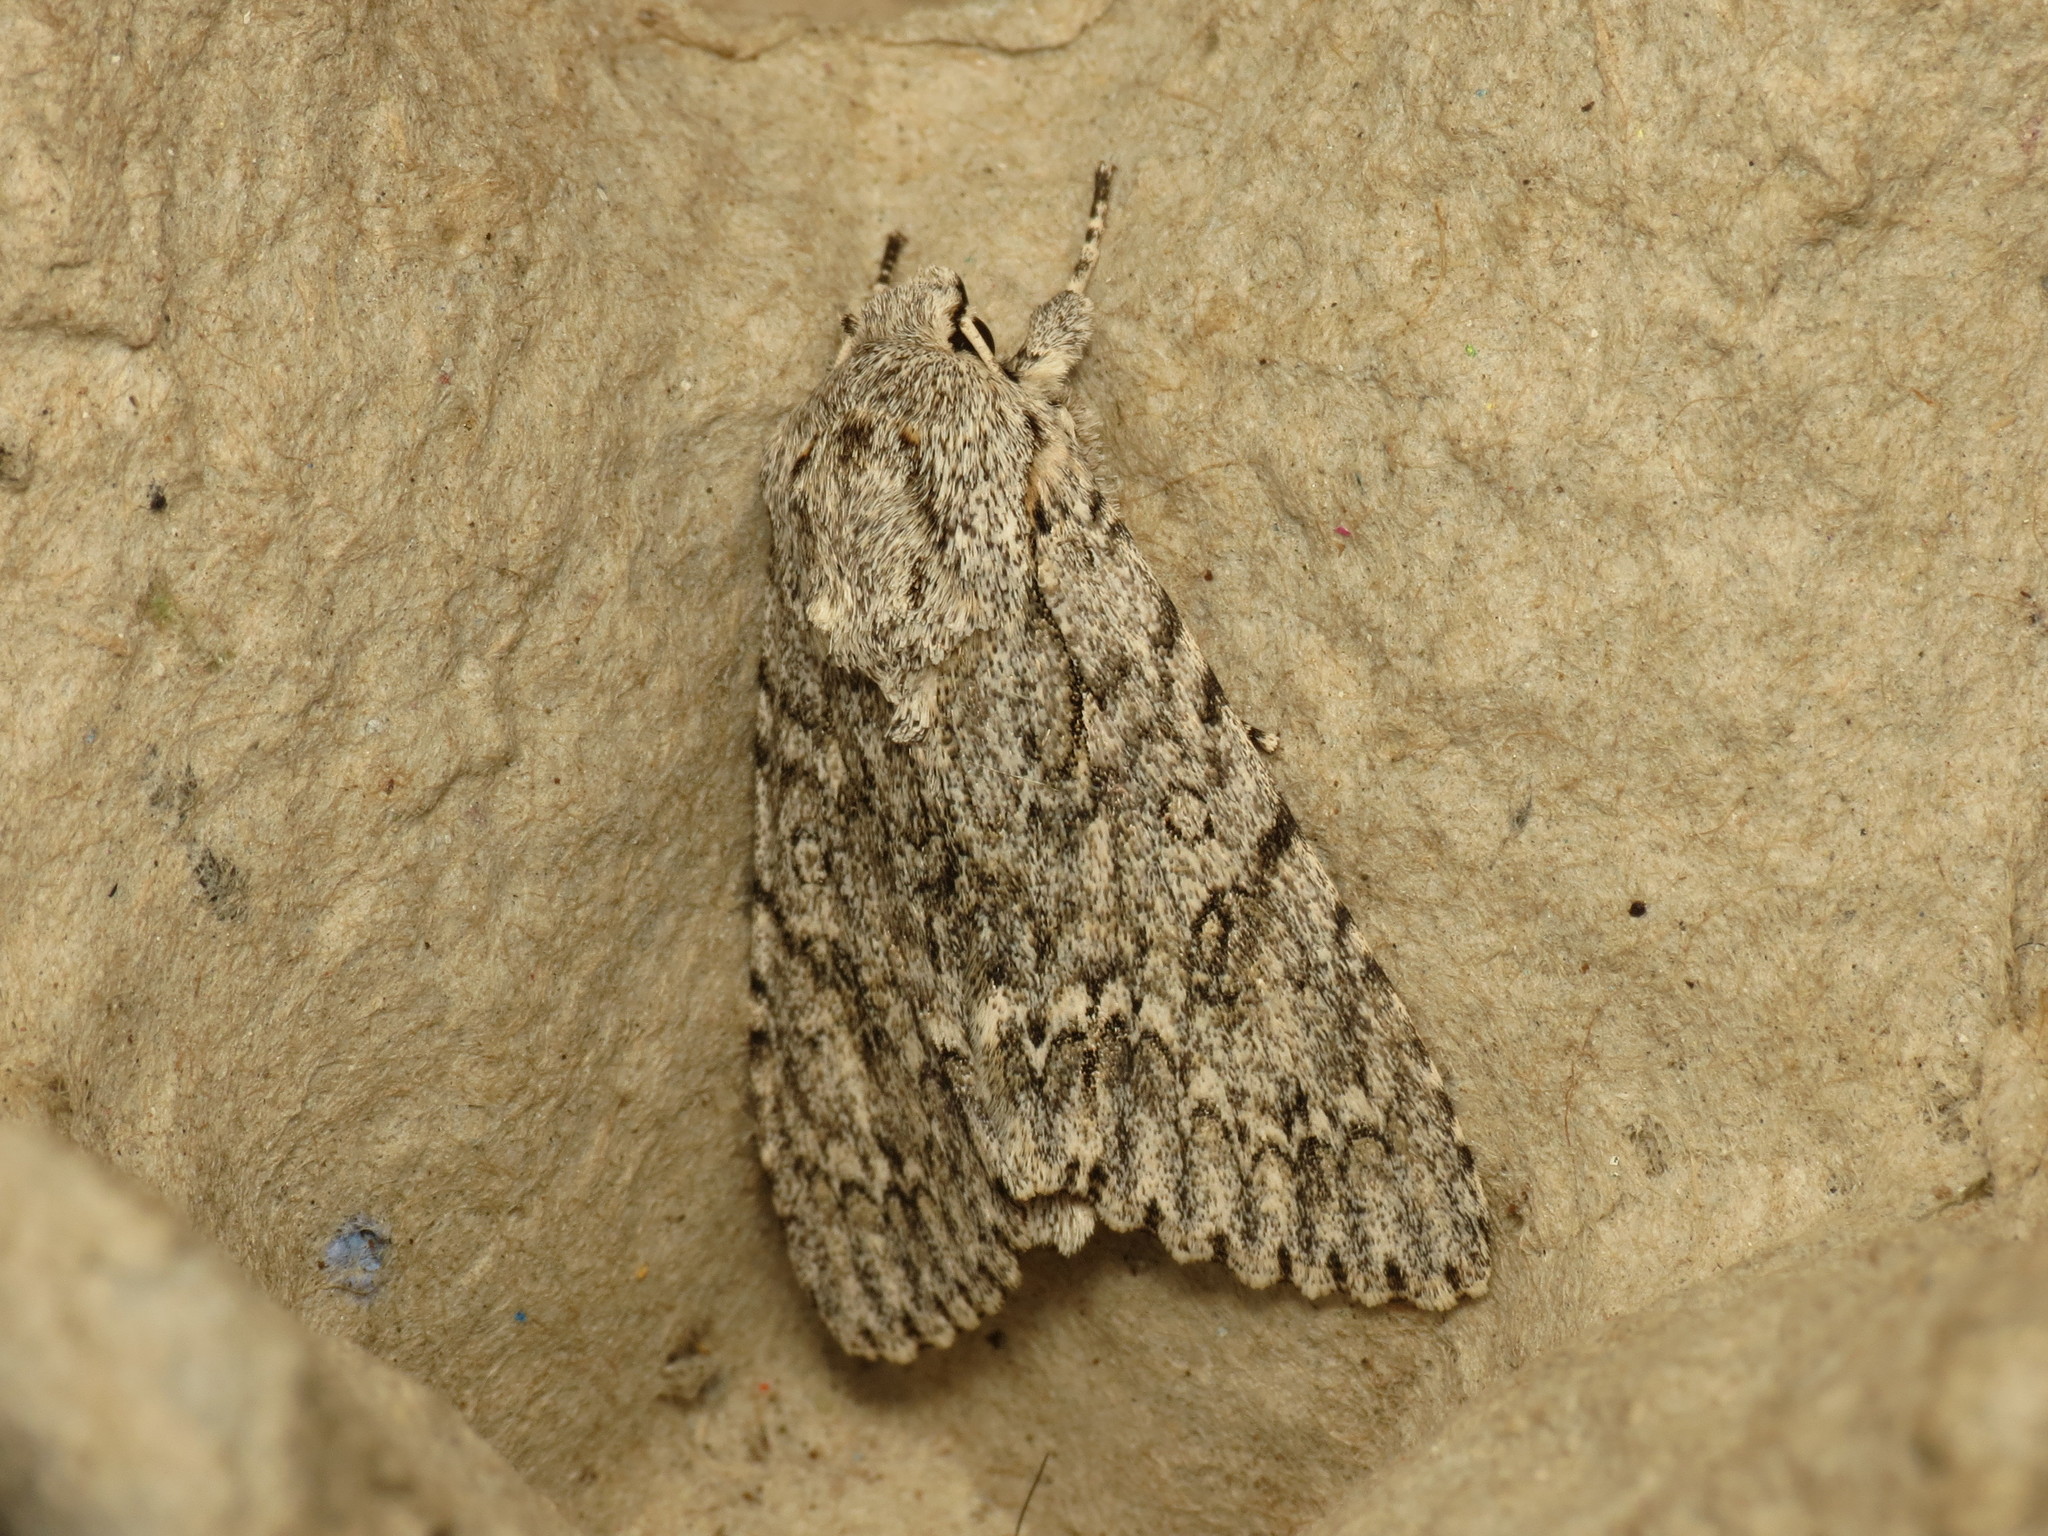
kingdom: Animalia
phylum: Arthropoda
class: Insecta
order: Lepidoptera
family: Noctuidae
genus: Acronicta
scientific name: Acronicta aceris
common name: Sycamore
